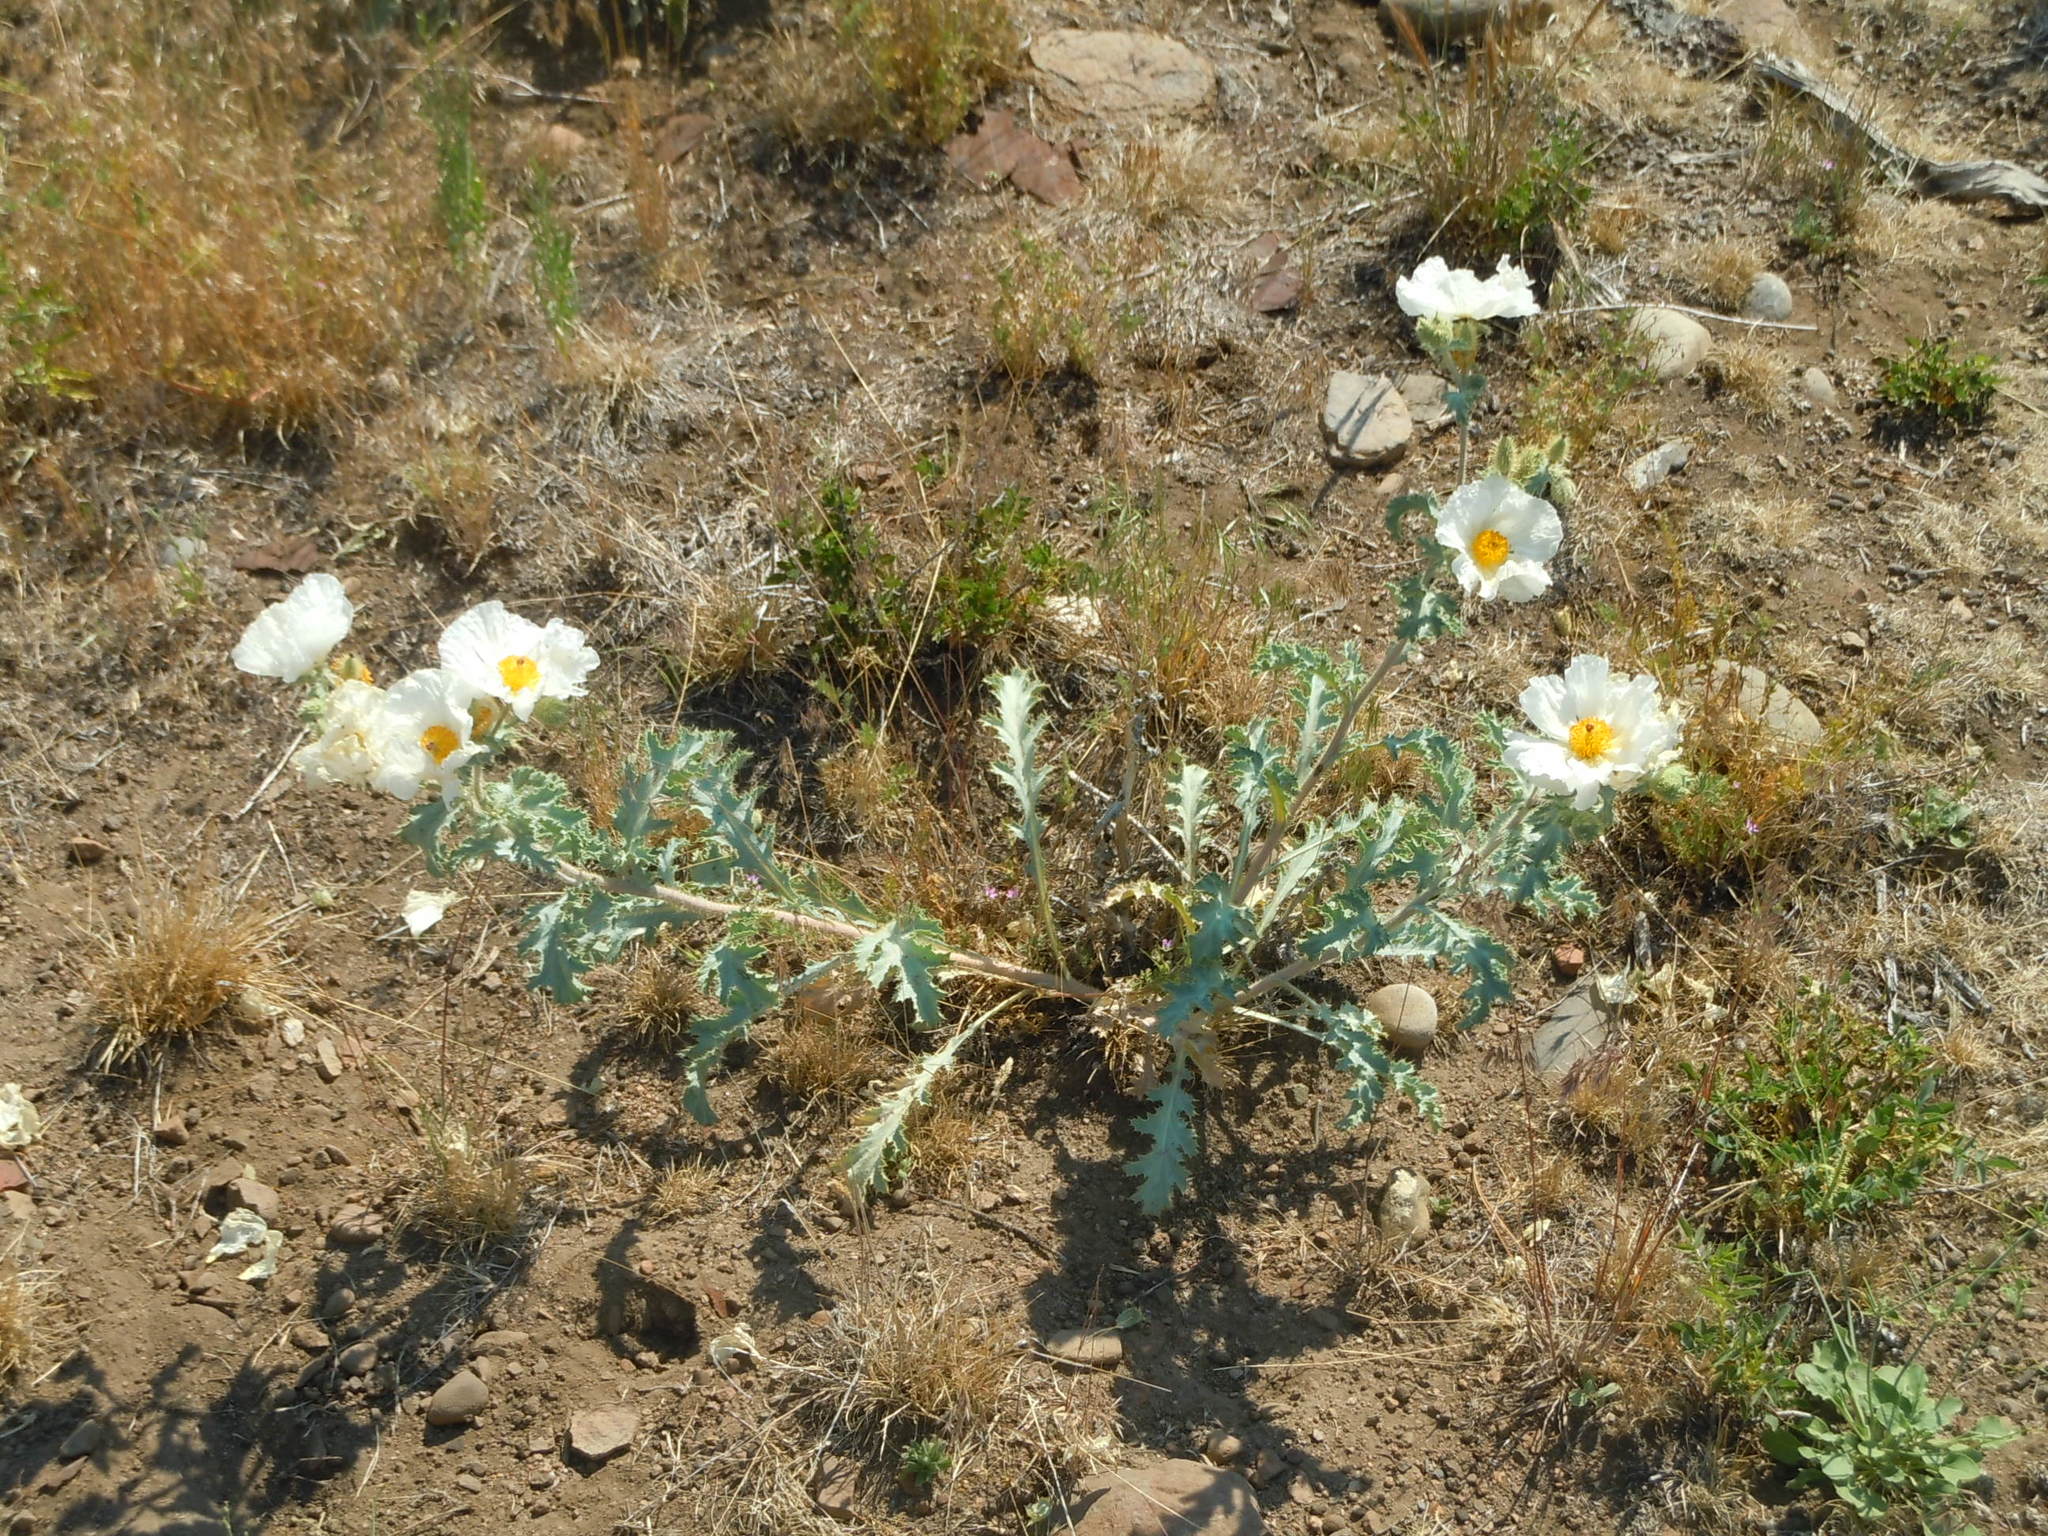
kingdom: Plantae
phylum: Tracheophyta
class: Magnoliopsida
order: Ranunculales
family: Papaveraceae
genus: Argemone
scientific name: Argemone munita
